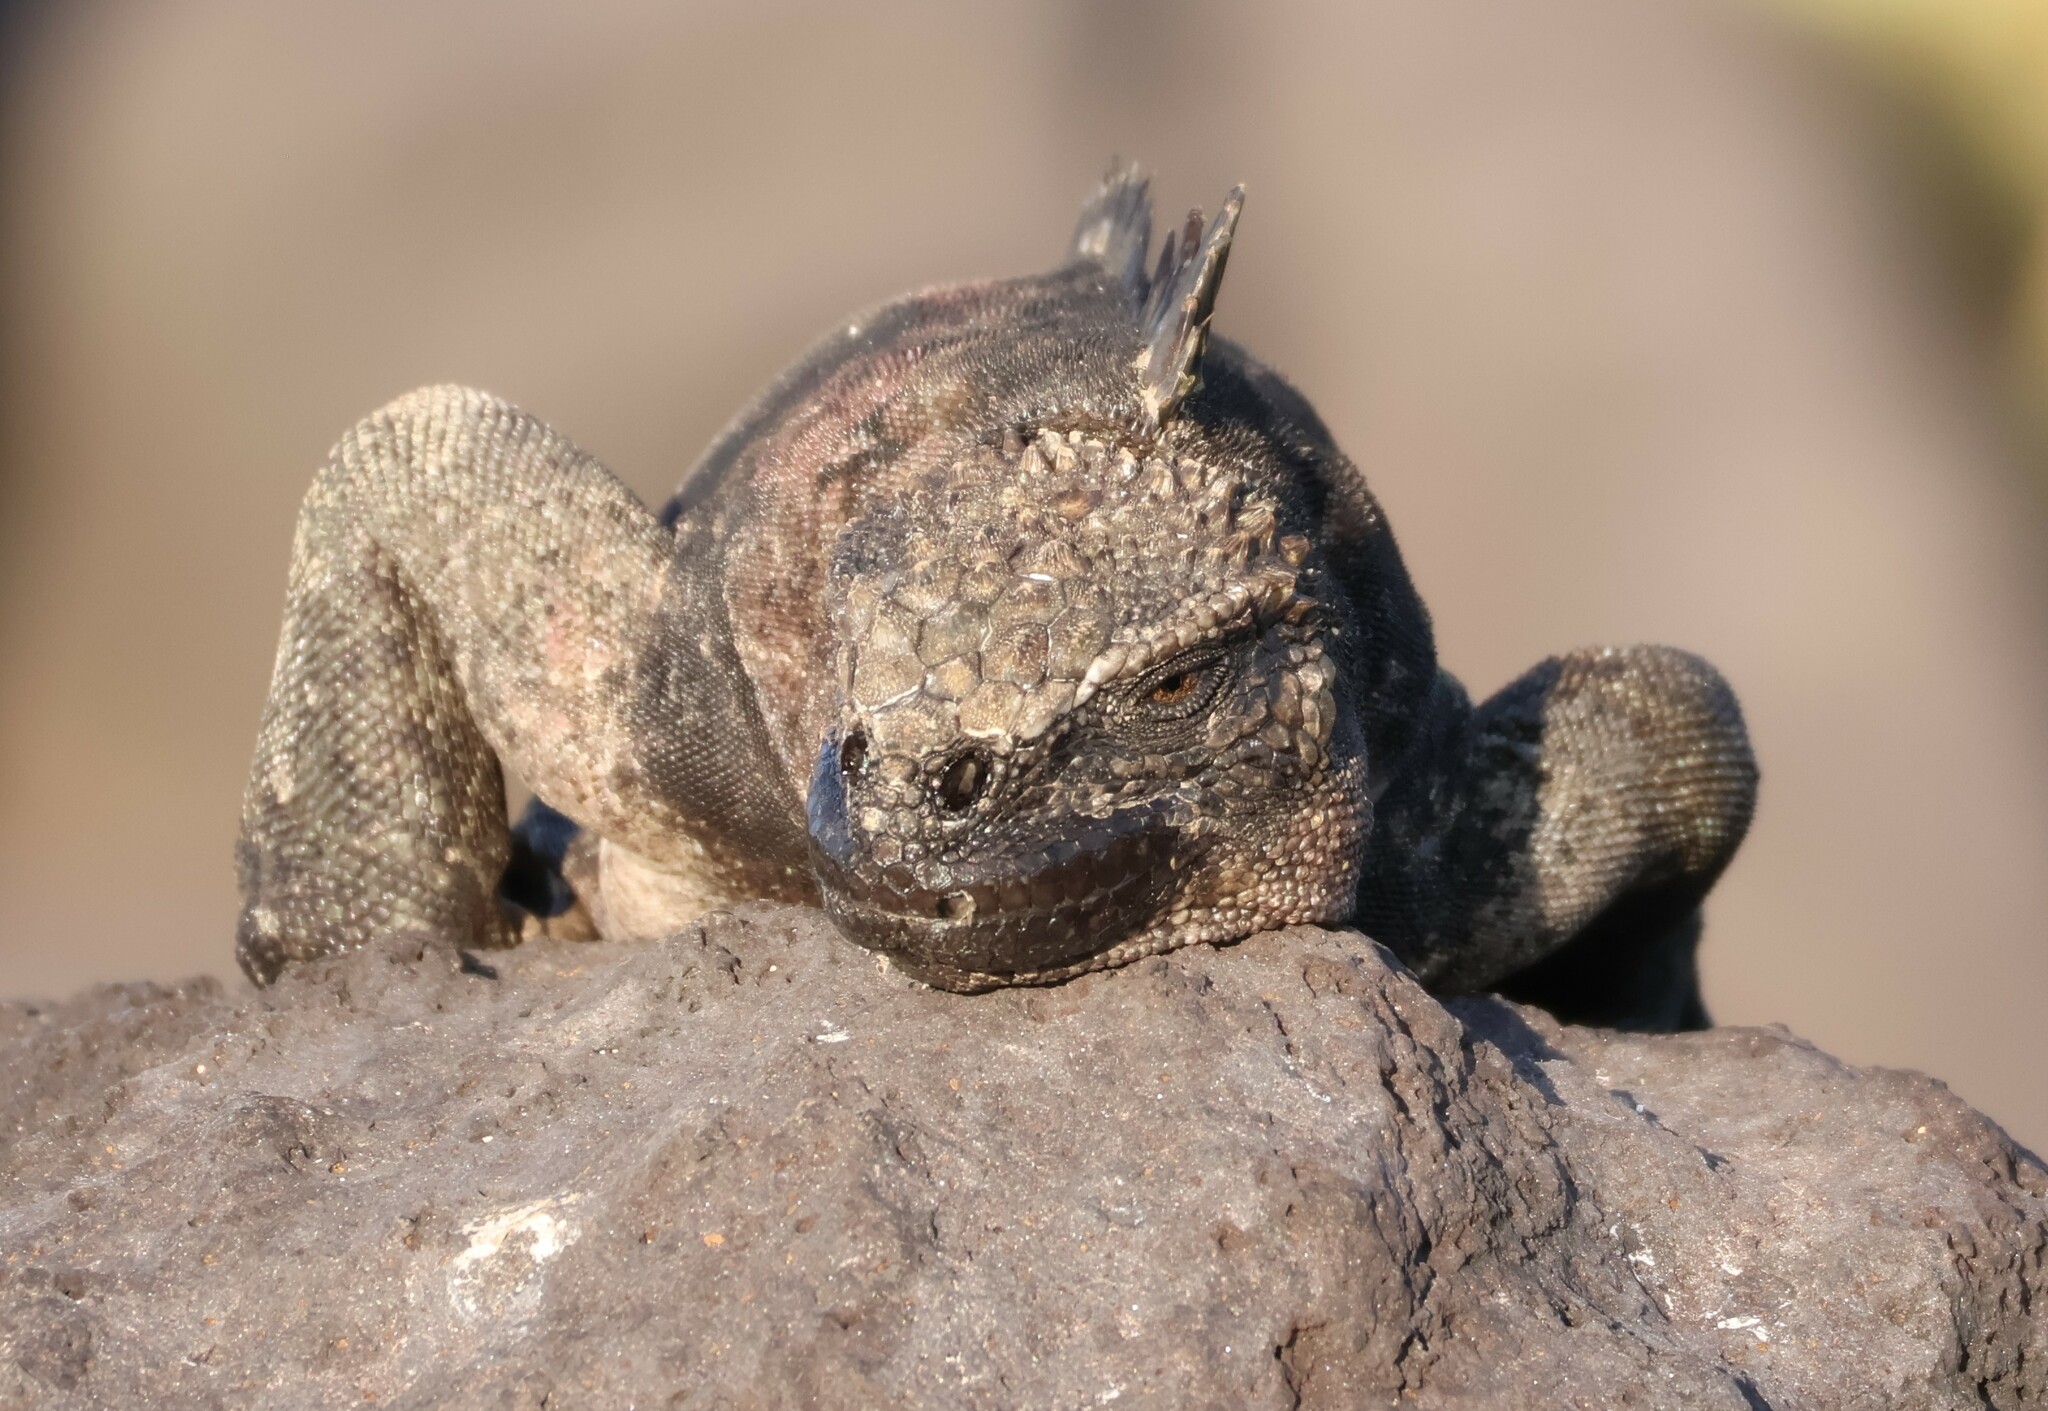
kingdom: Animalia
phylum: Chordata
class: Squamata
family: Iguanidae
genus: Amblyrhynchus
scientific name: Amblyrhynchus cristatus
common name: Marine iguana
